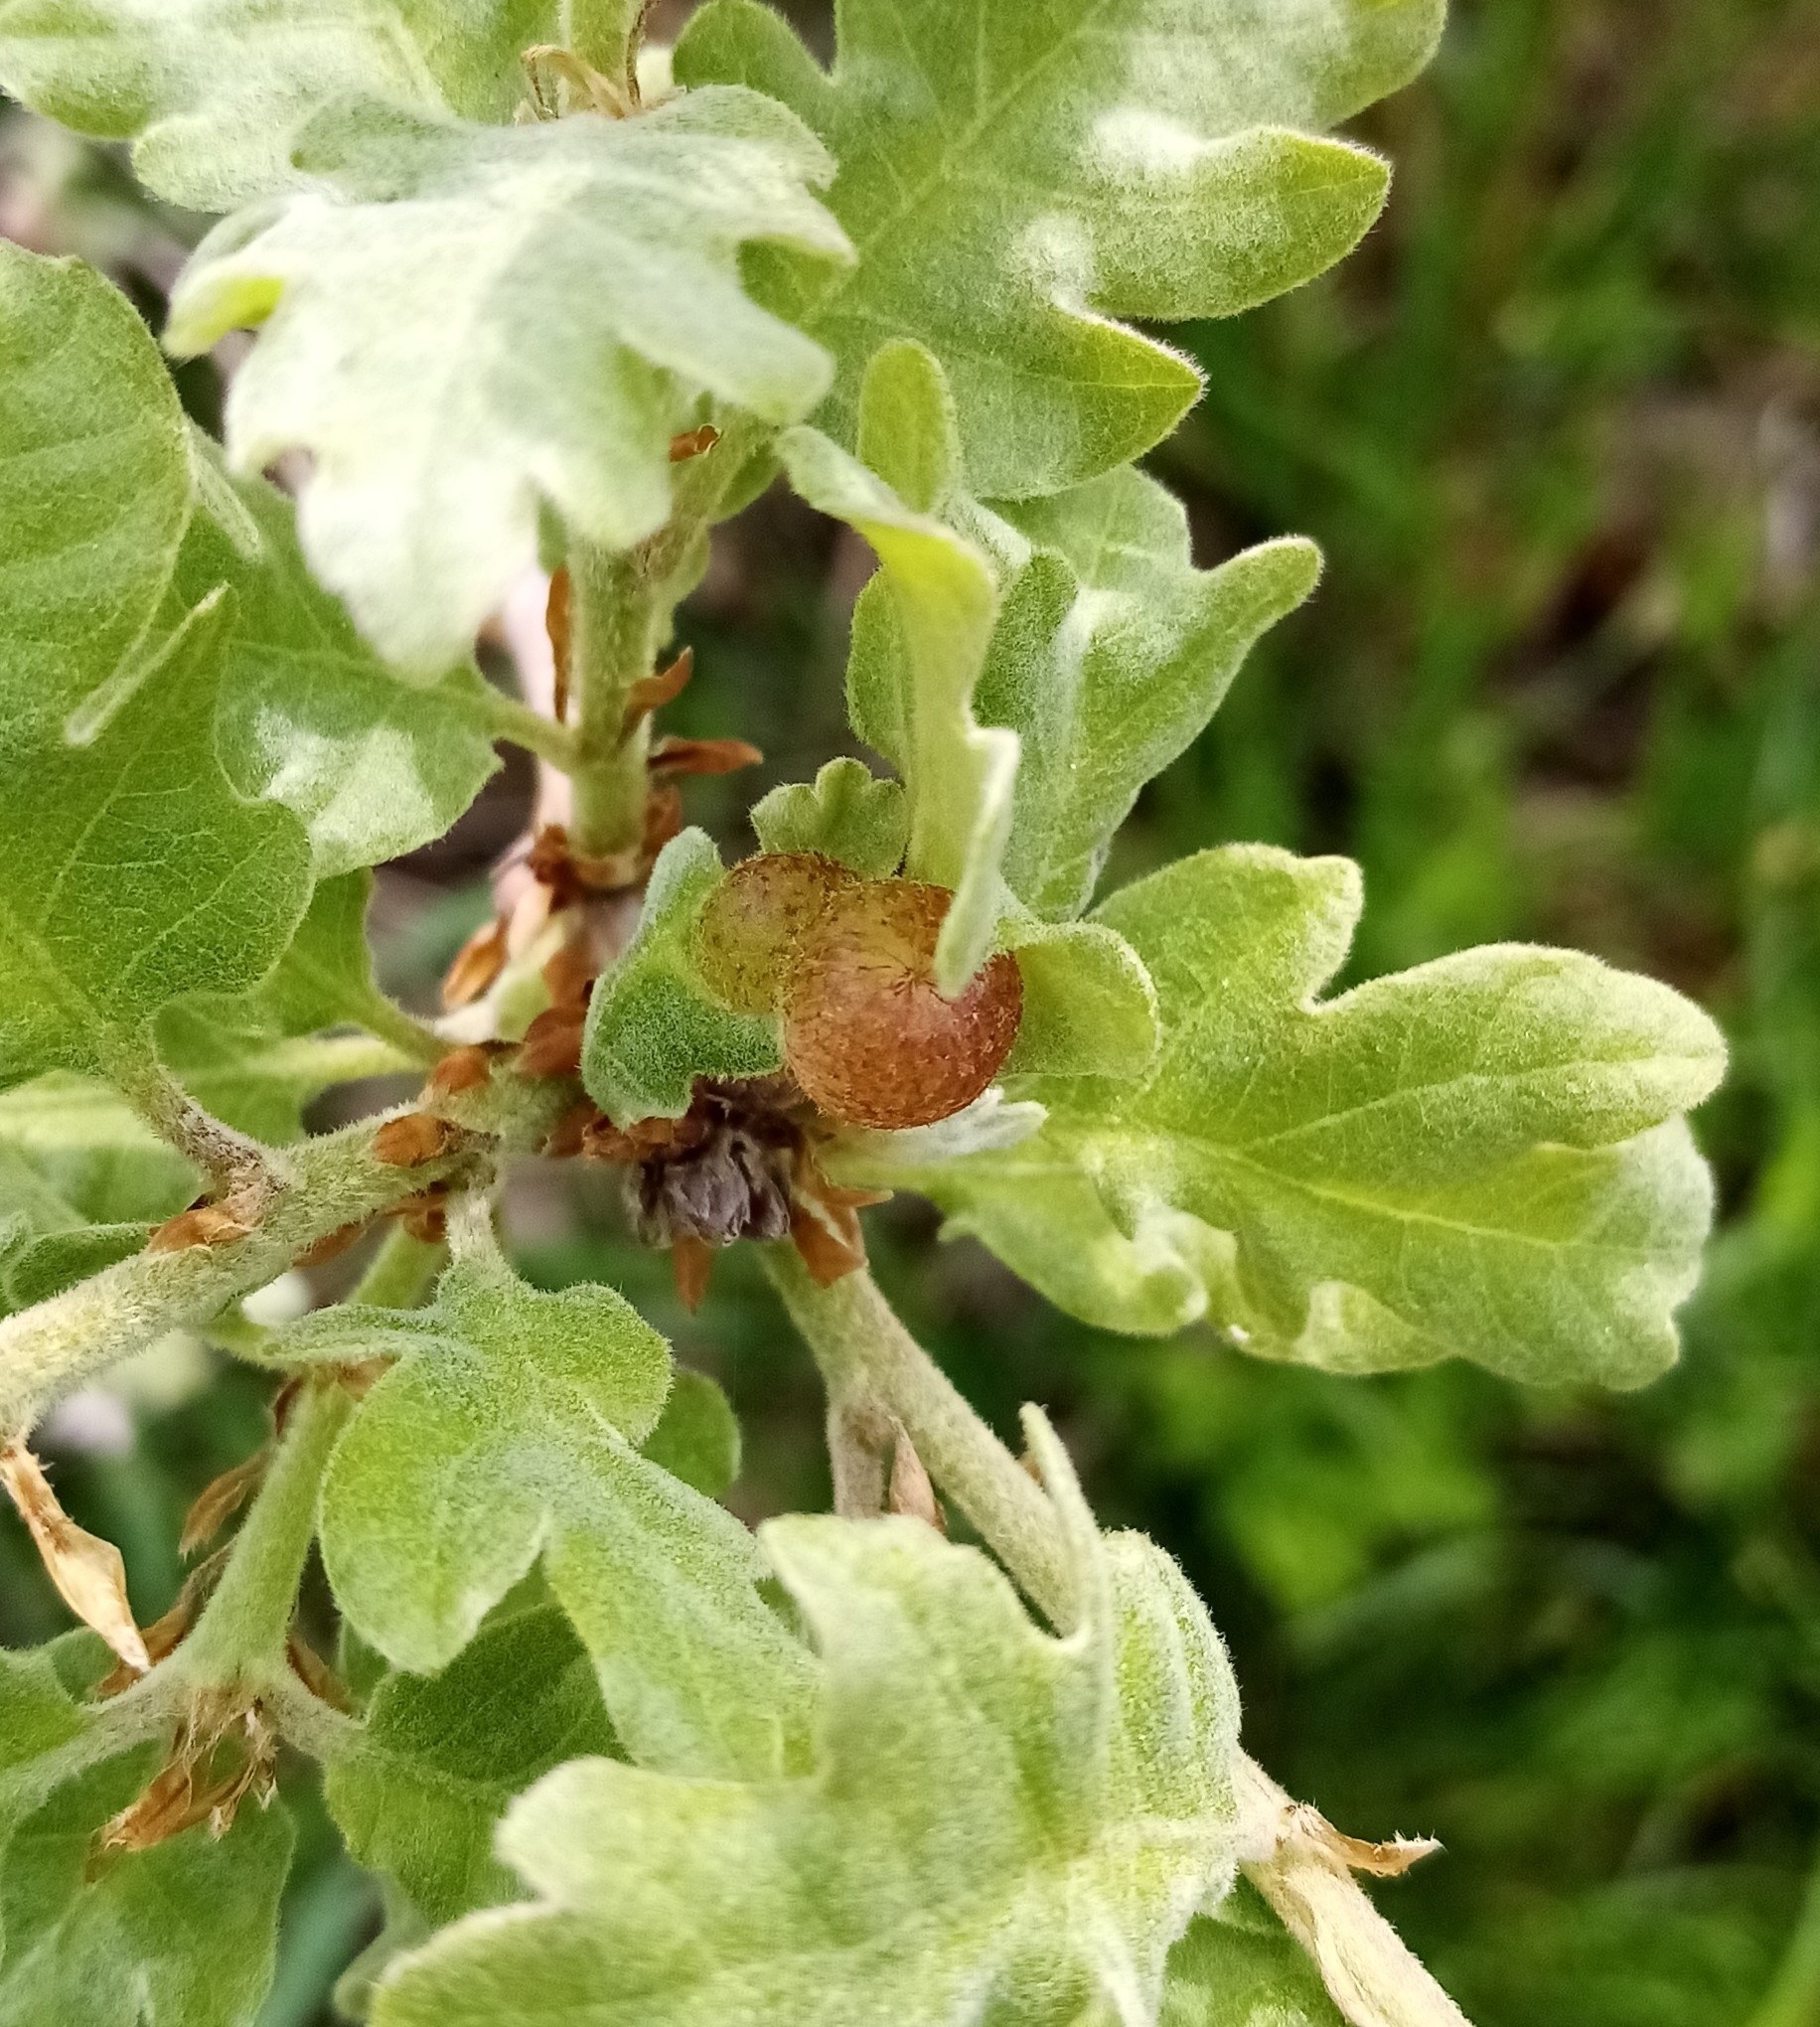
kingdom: Animalia
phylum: Arthropoda
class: Insecta
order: Hymenoptera
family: Cynipidae
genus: Neuroterus
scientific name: Neuroterus quercusbaccarum
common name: Common spangle gall
